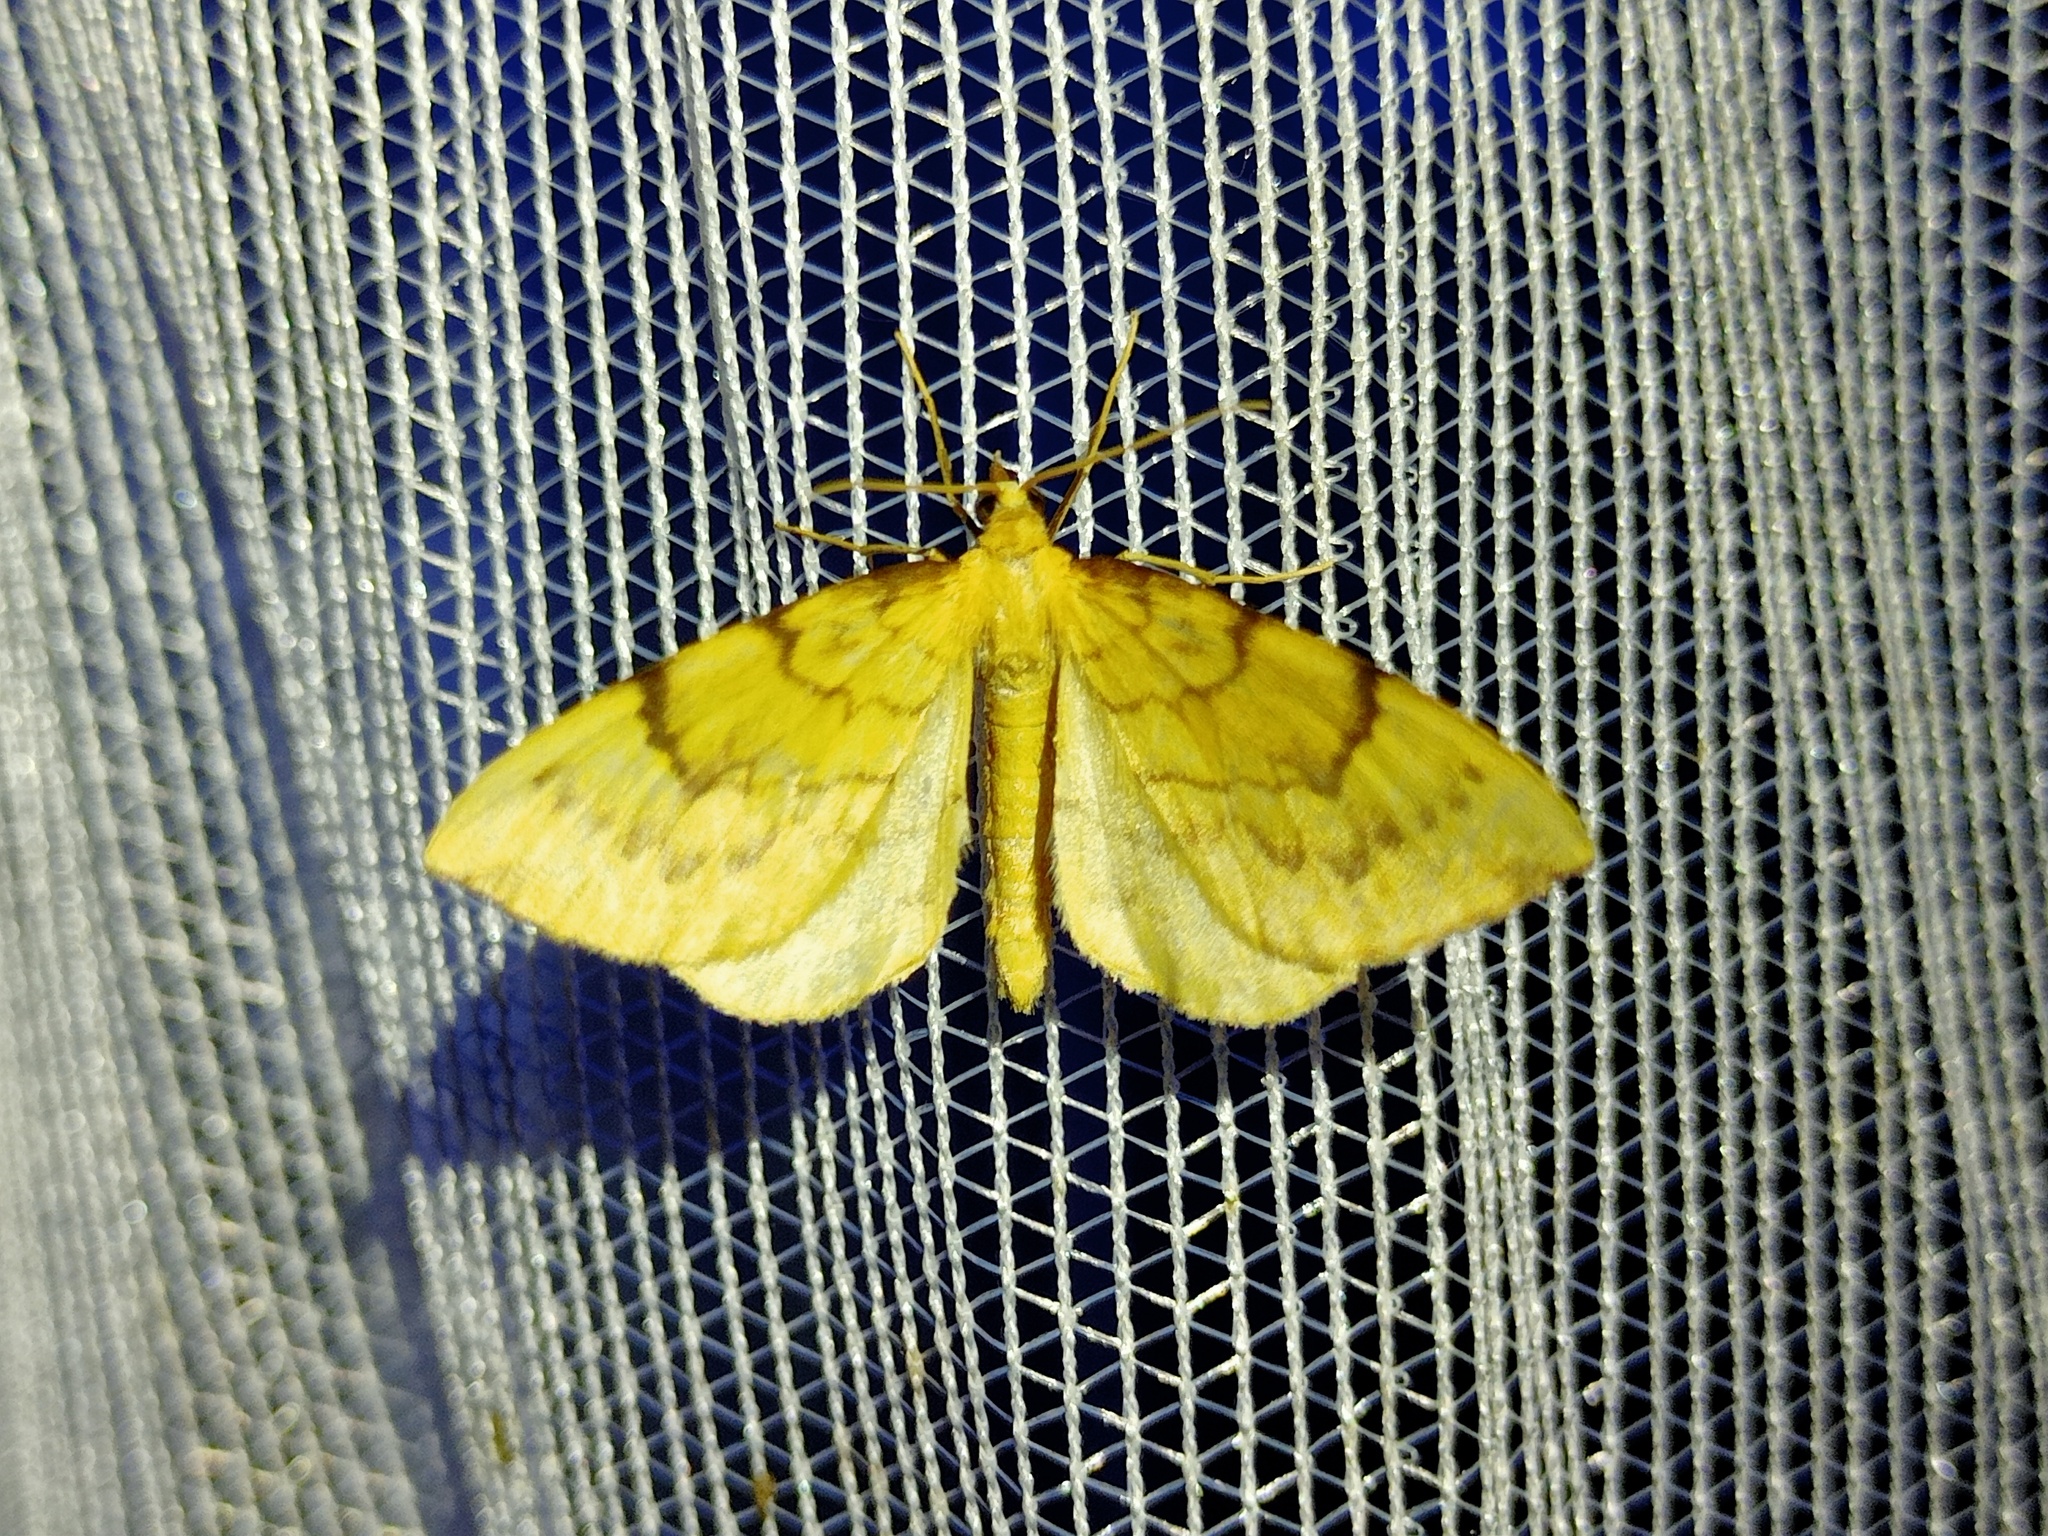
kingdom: Animalia
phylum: Arthropoda
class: Insecta
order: Lepidoptera
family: Geometridae
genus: Eulithis
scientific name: Eulithis pyraliata
